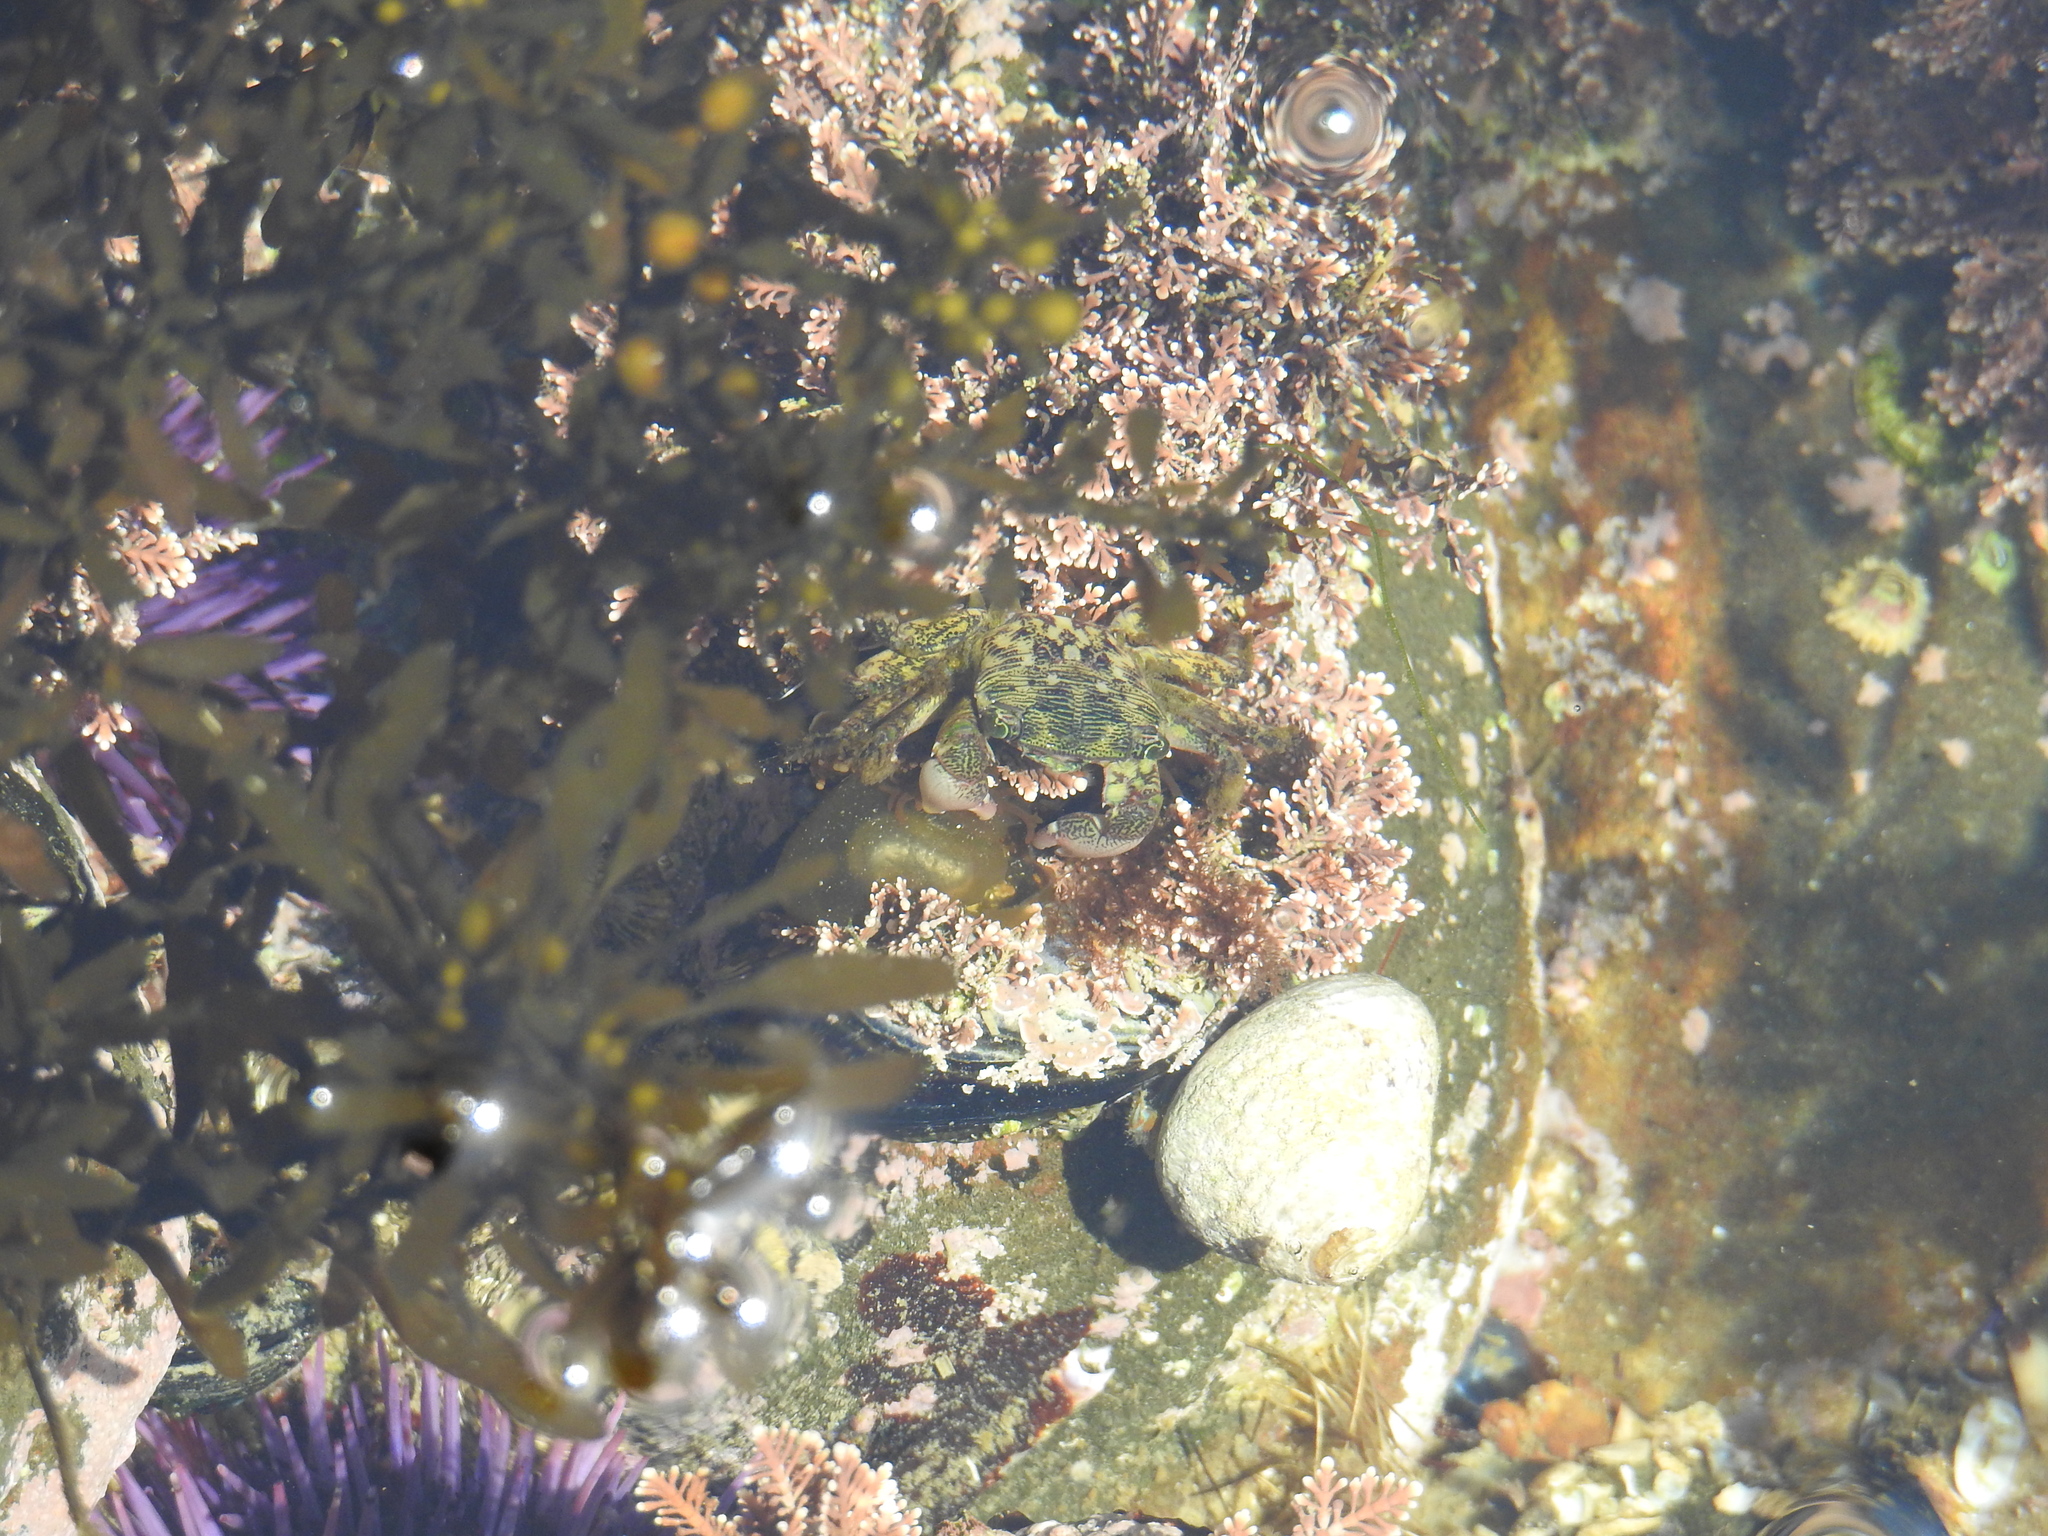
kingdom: Animalia
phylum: Arthropoda
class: Malacostraca
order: Decapoda
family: Grapsidae
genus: Pachygrapsus
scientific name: Pachygrapsus crassipes
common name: Striped shore crab
